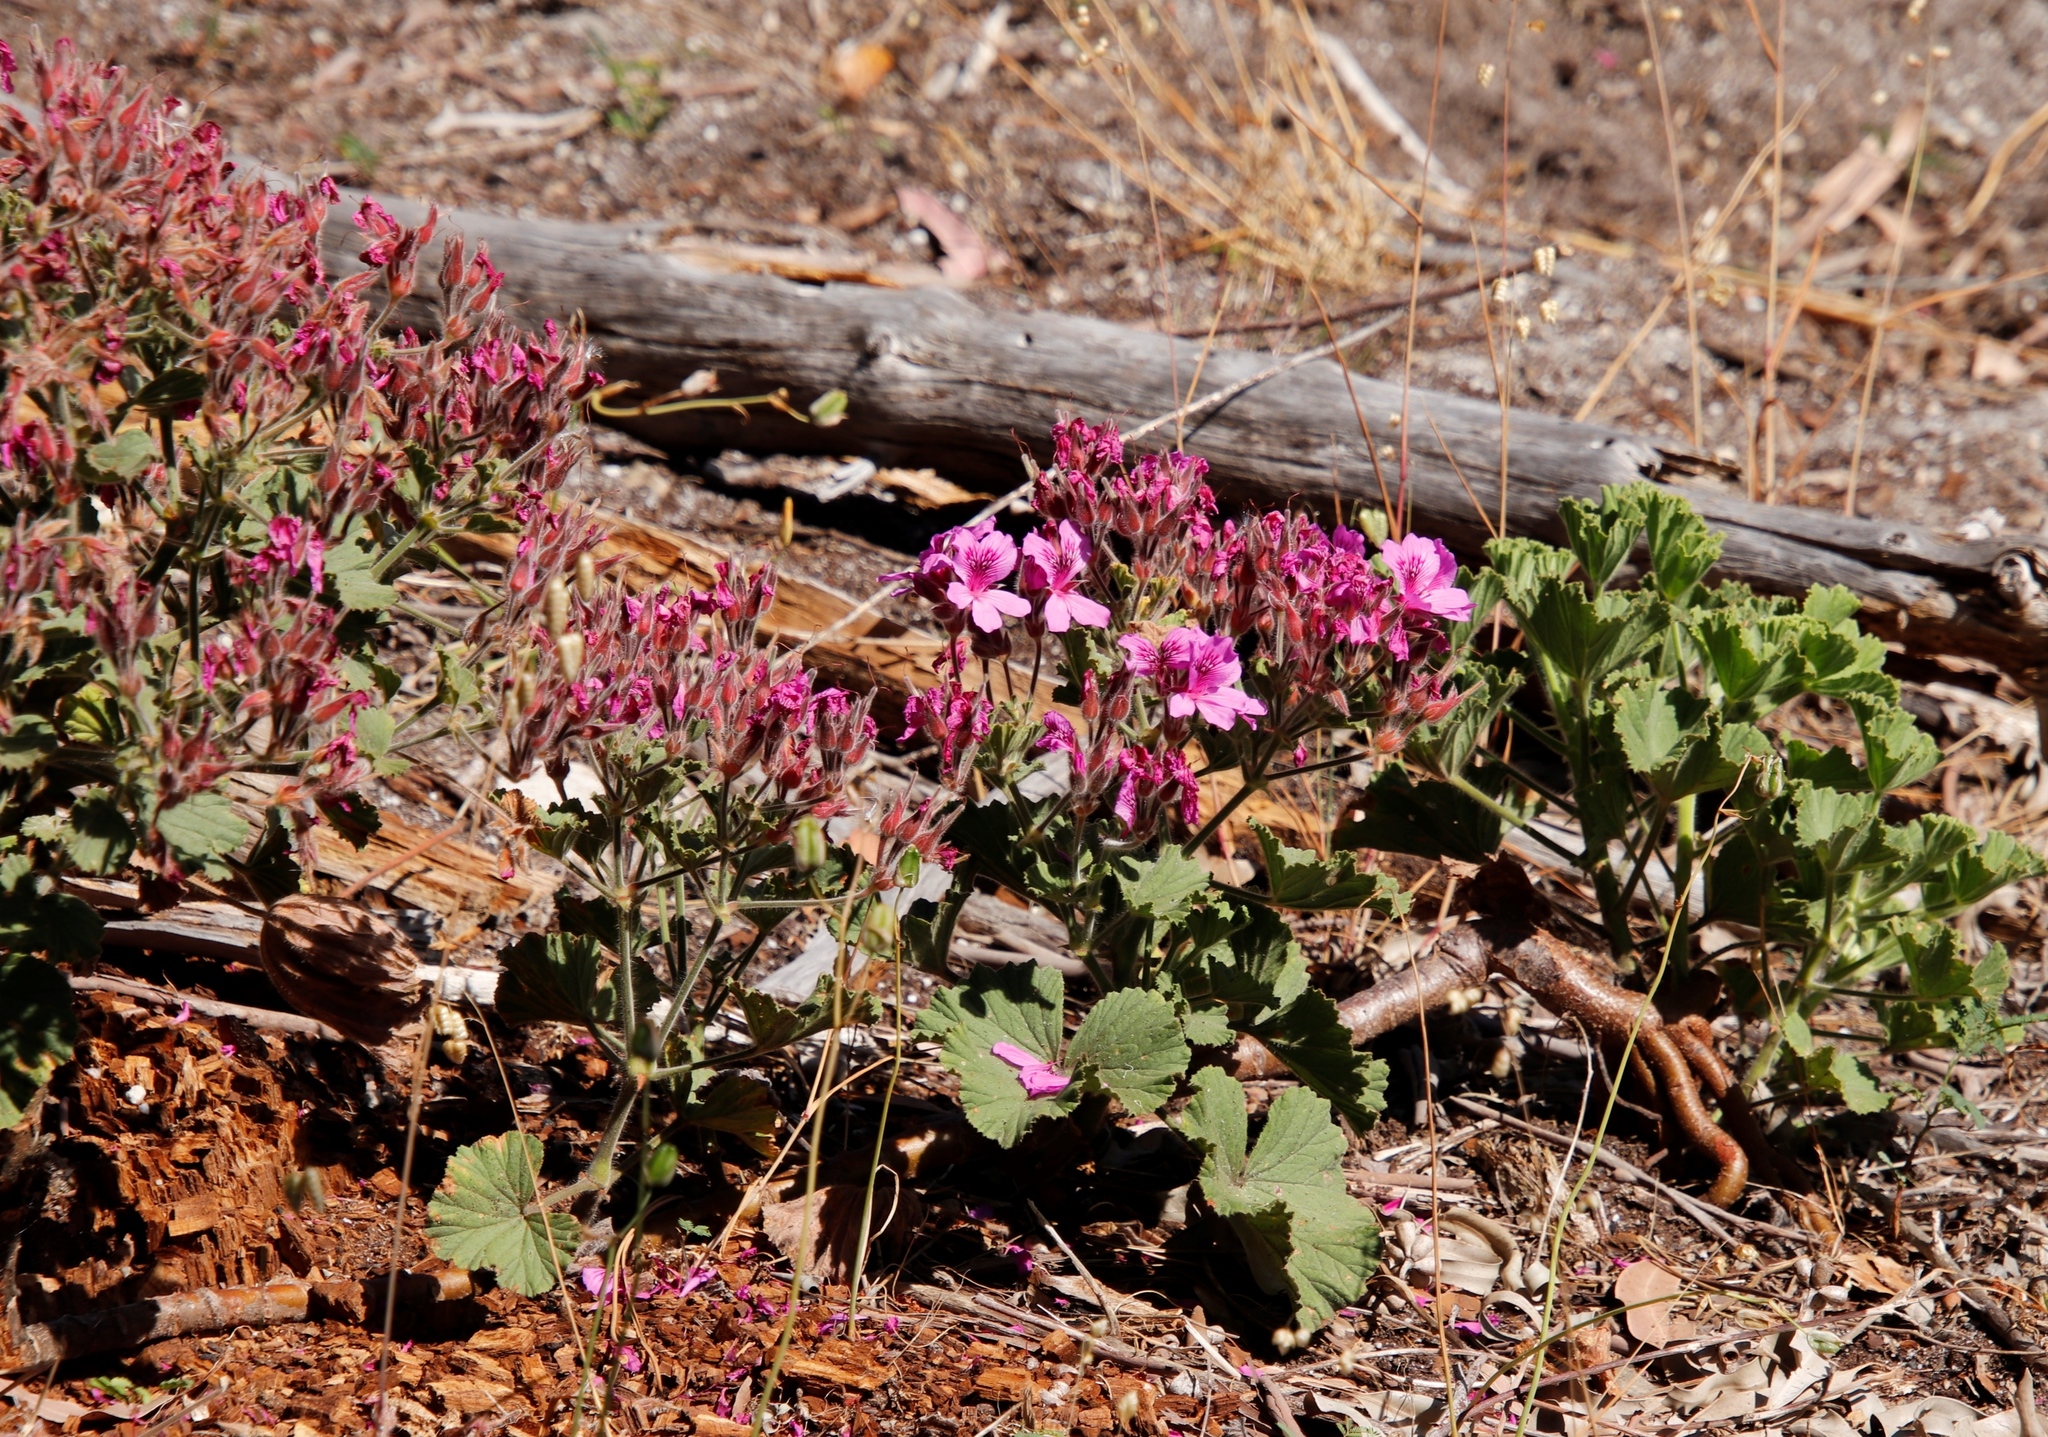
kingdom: Plantae
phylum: Tracheophyta
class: Magnoliopsida
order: Geraniales
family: Geraniaceae
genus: Pelargonium
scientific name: Pelargonium cucullatum
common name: Tree pelargonium
